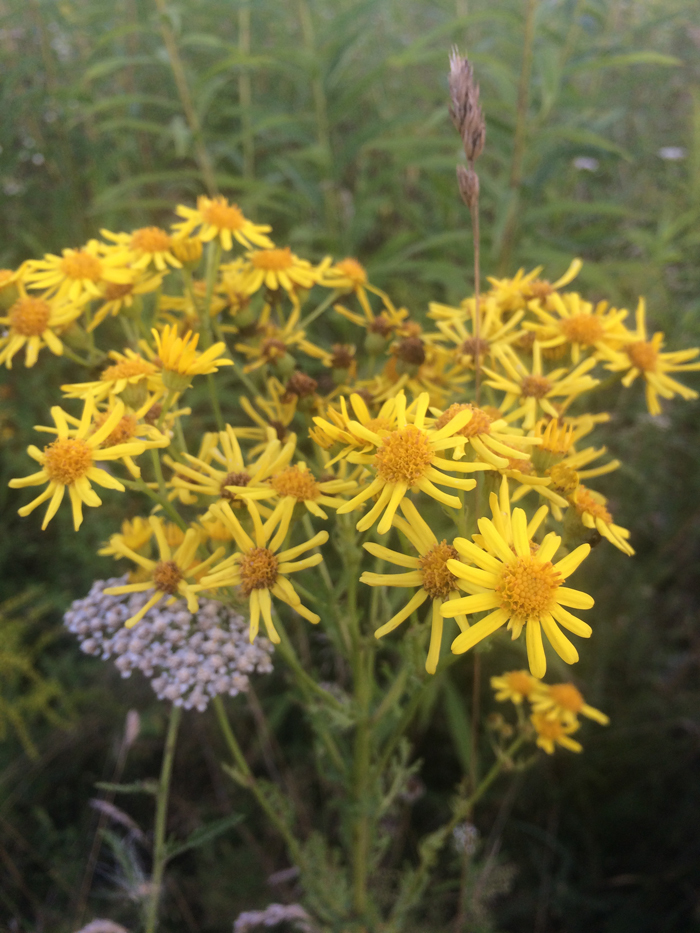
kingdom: Plantae
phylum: Tracheophyta
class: Magnoliopsida
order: Asterales
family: Asteraceae
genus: Jacobaea
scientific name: Jacobaea vulgaris
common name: Stinking willie
